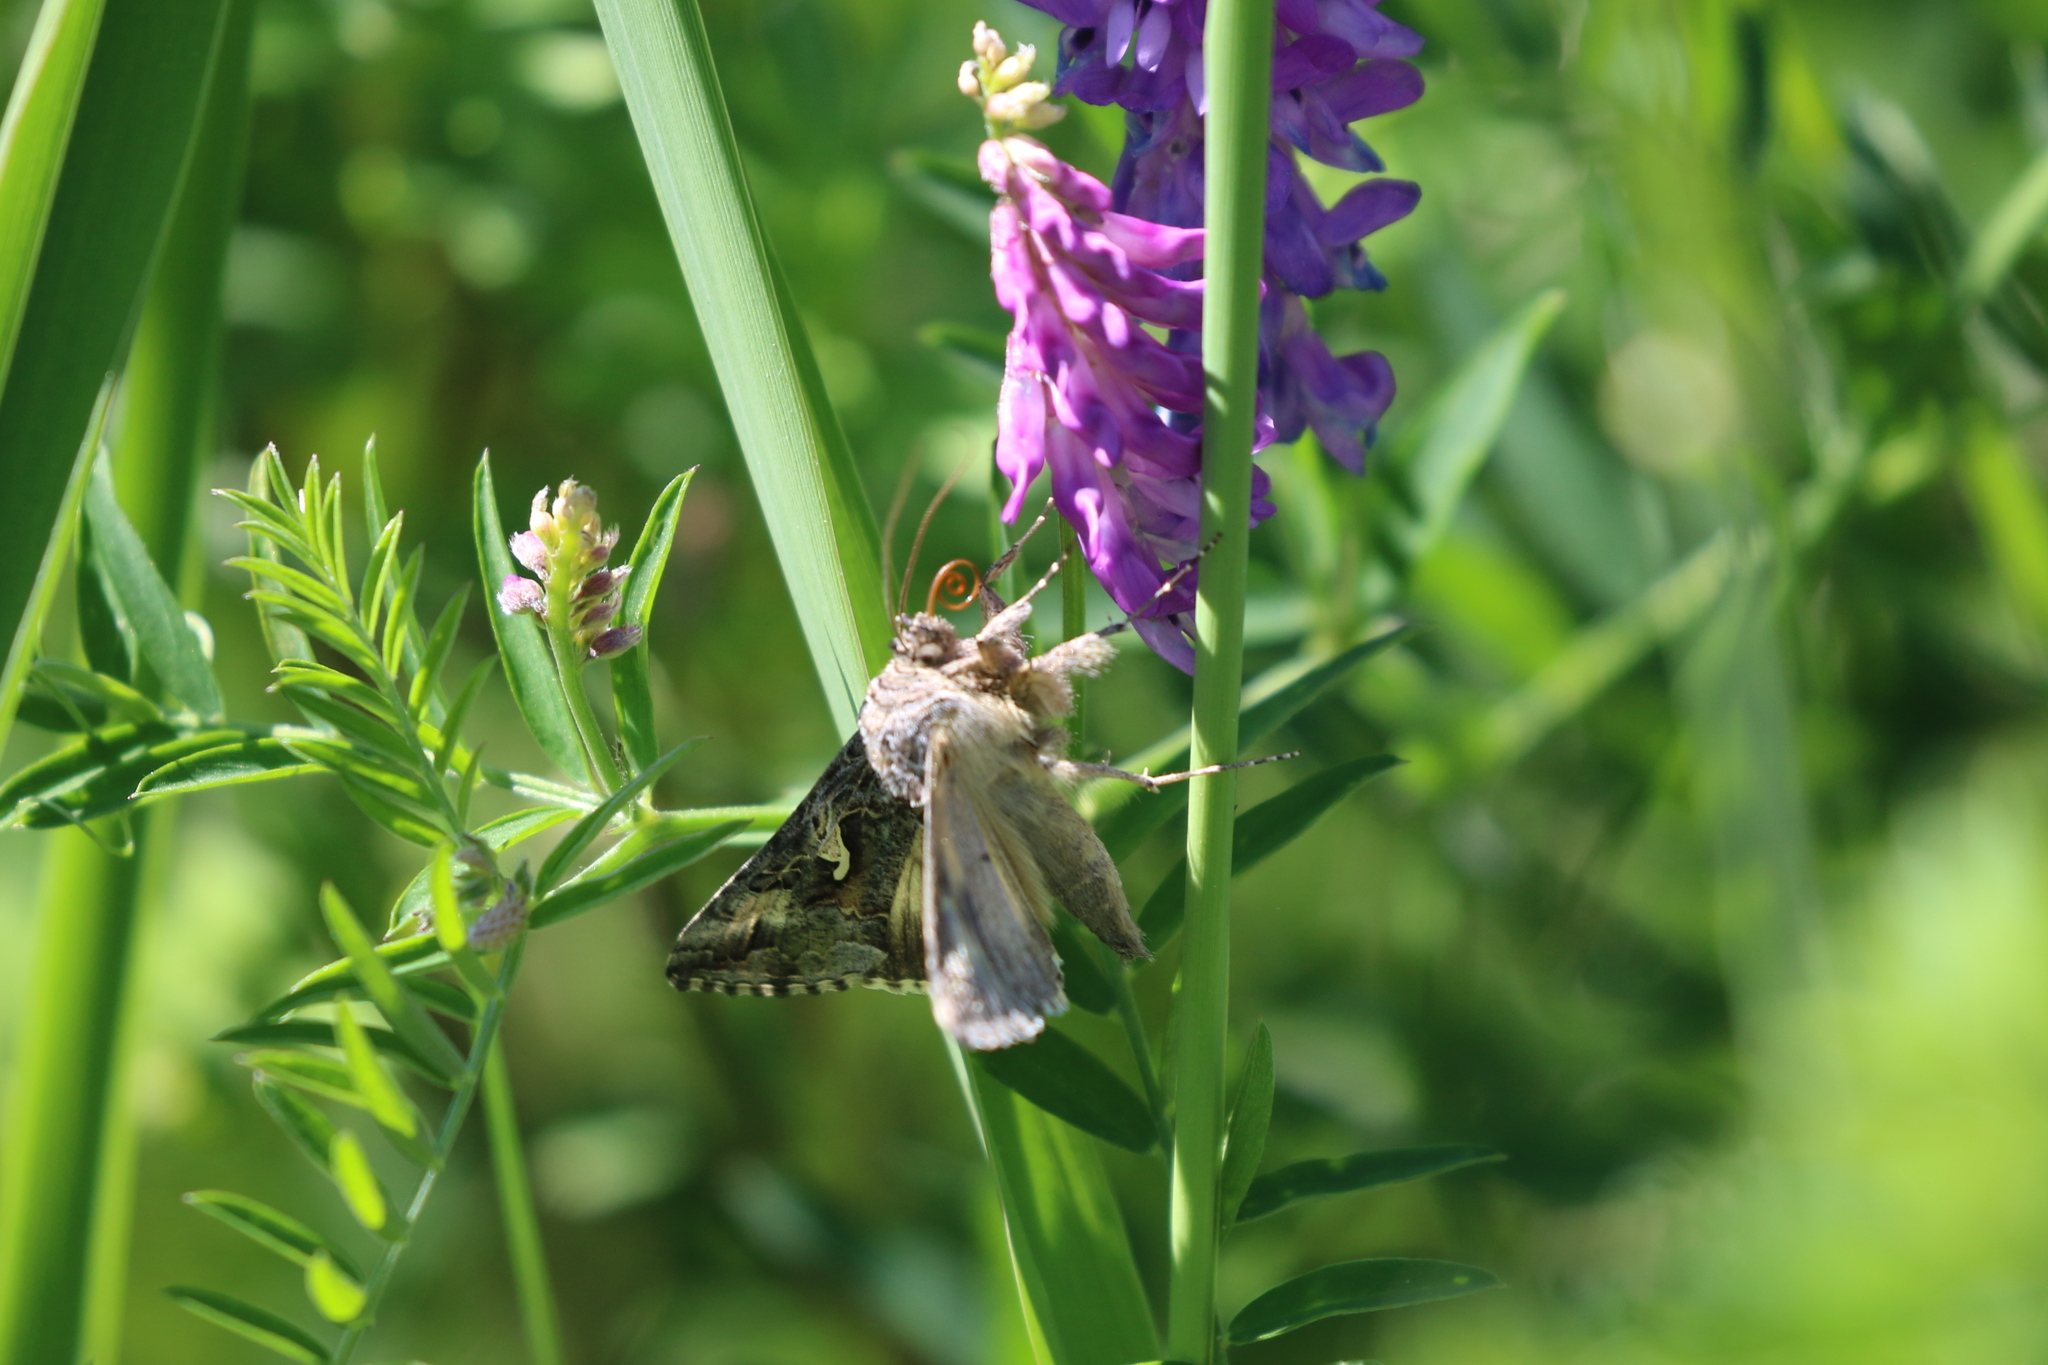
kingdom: Animalia
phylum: Arthropoda
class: Insecta
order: Lepidoptera
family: Noctuidae
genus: Autographa
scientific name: Autographa californica
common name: Alfalfa looper
